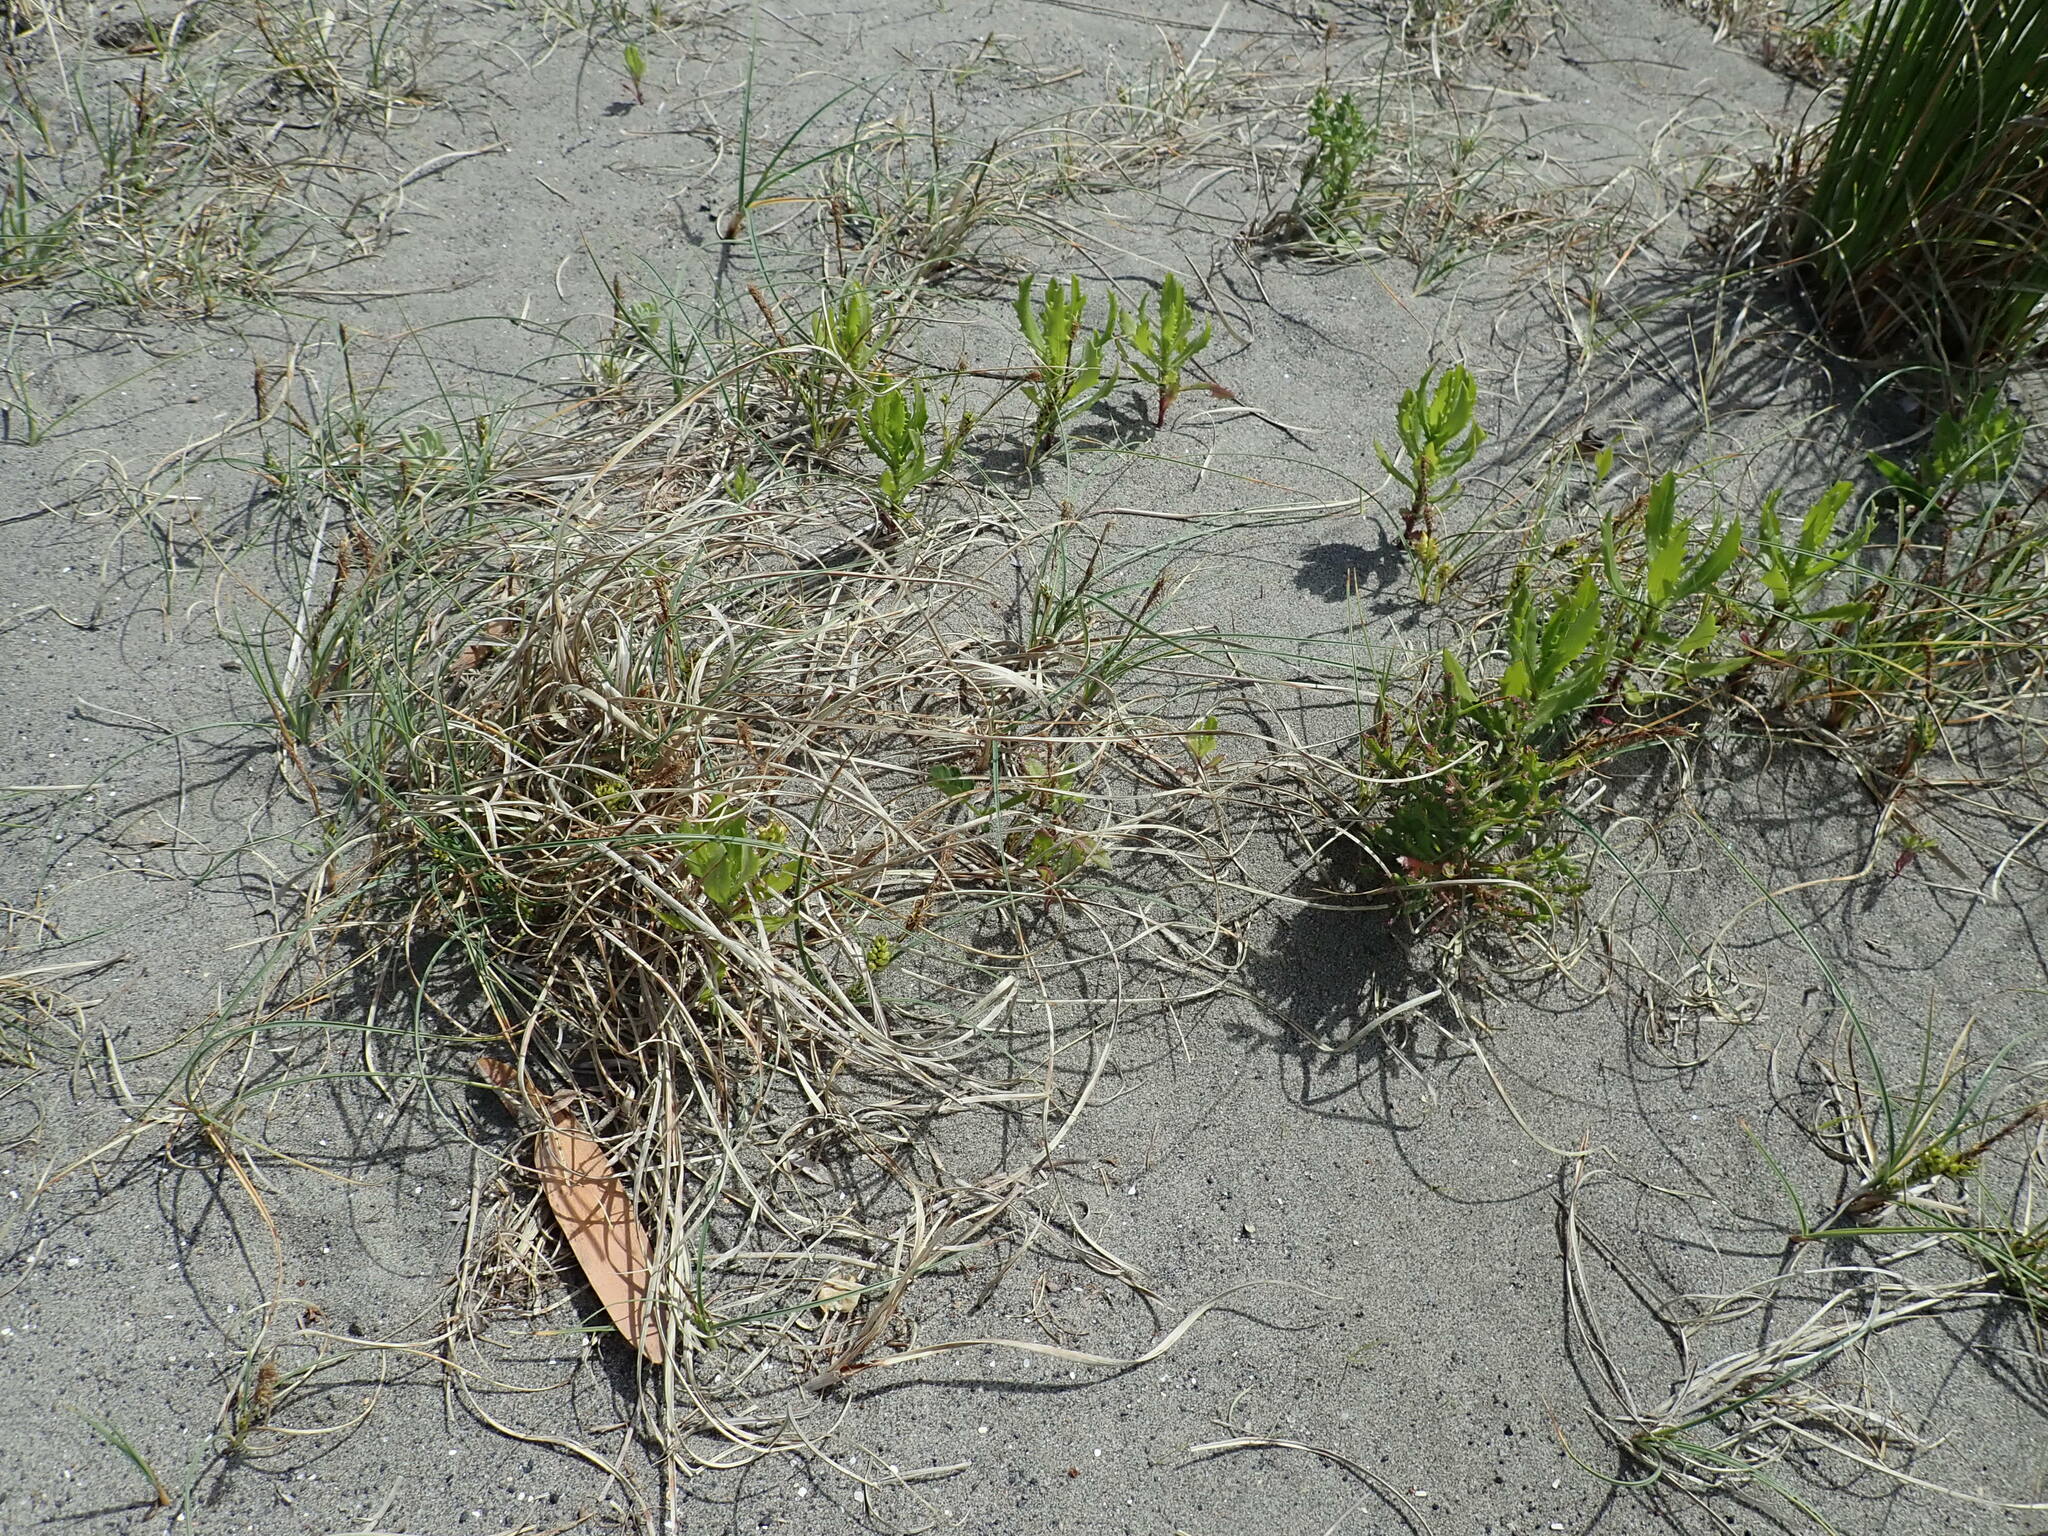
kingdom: Plantae
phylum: Tracheophyta
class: Magnoliopsida
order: Asterales
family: Asteraceae
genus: Senecio
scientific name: Senecio glastifolius
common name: Woad-leaved ragwort
